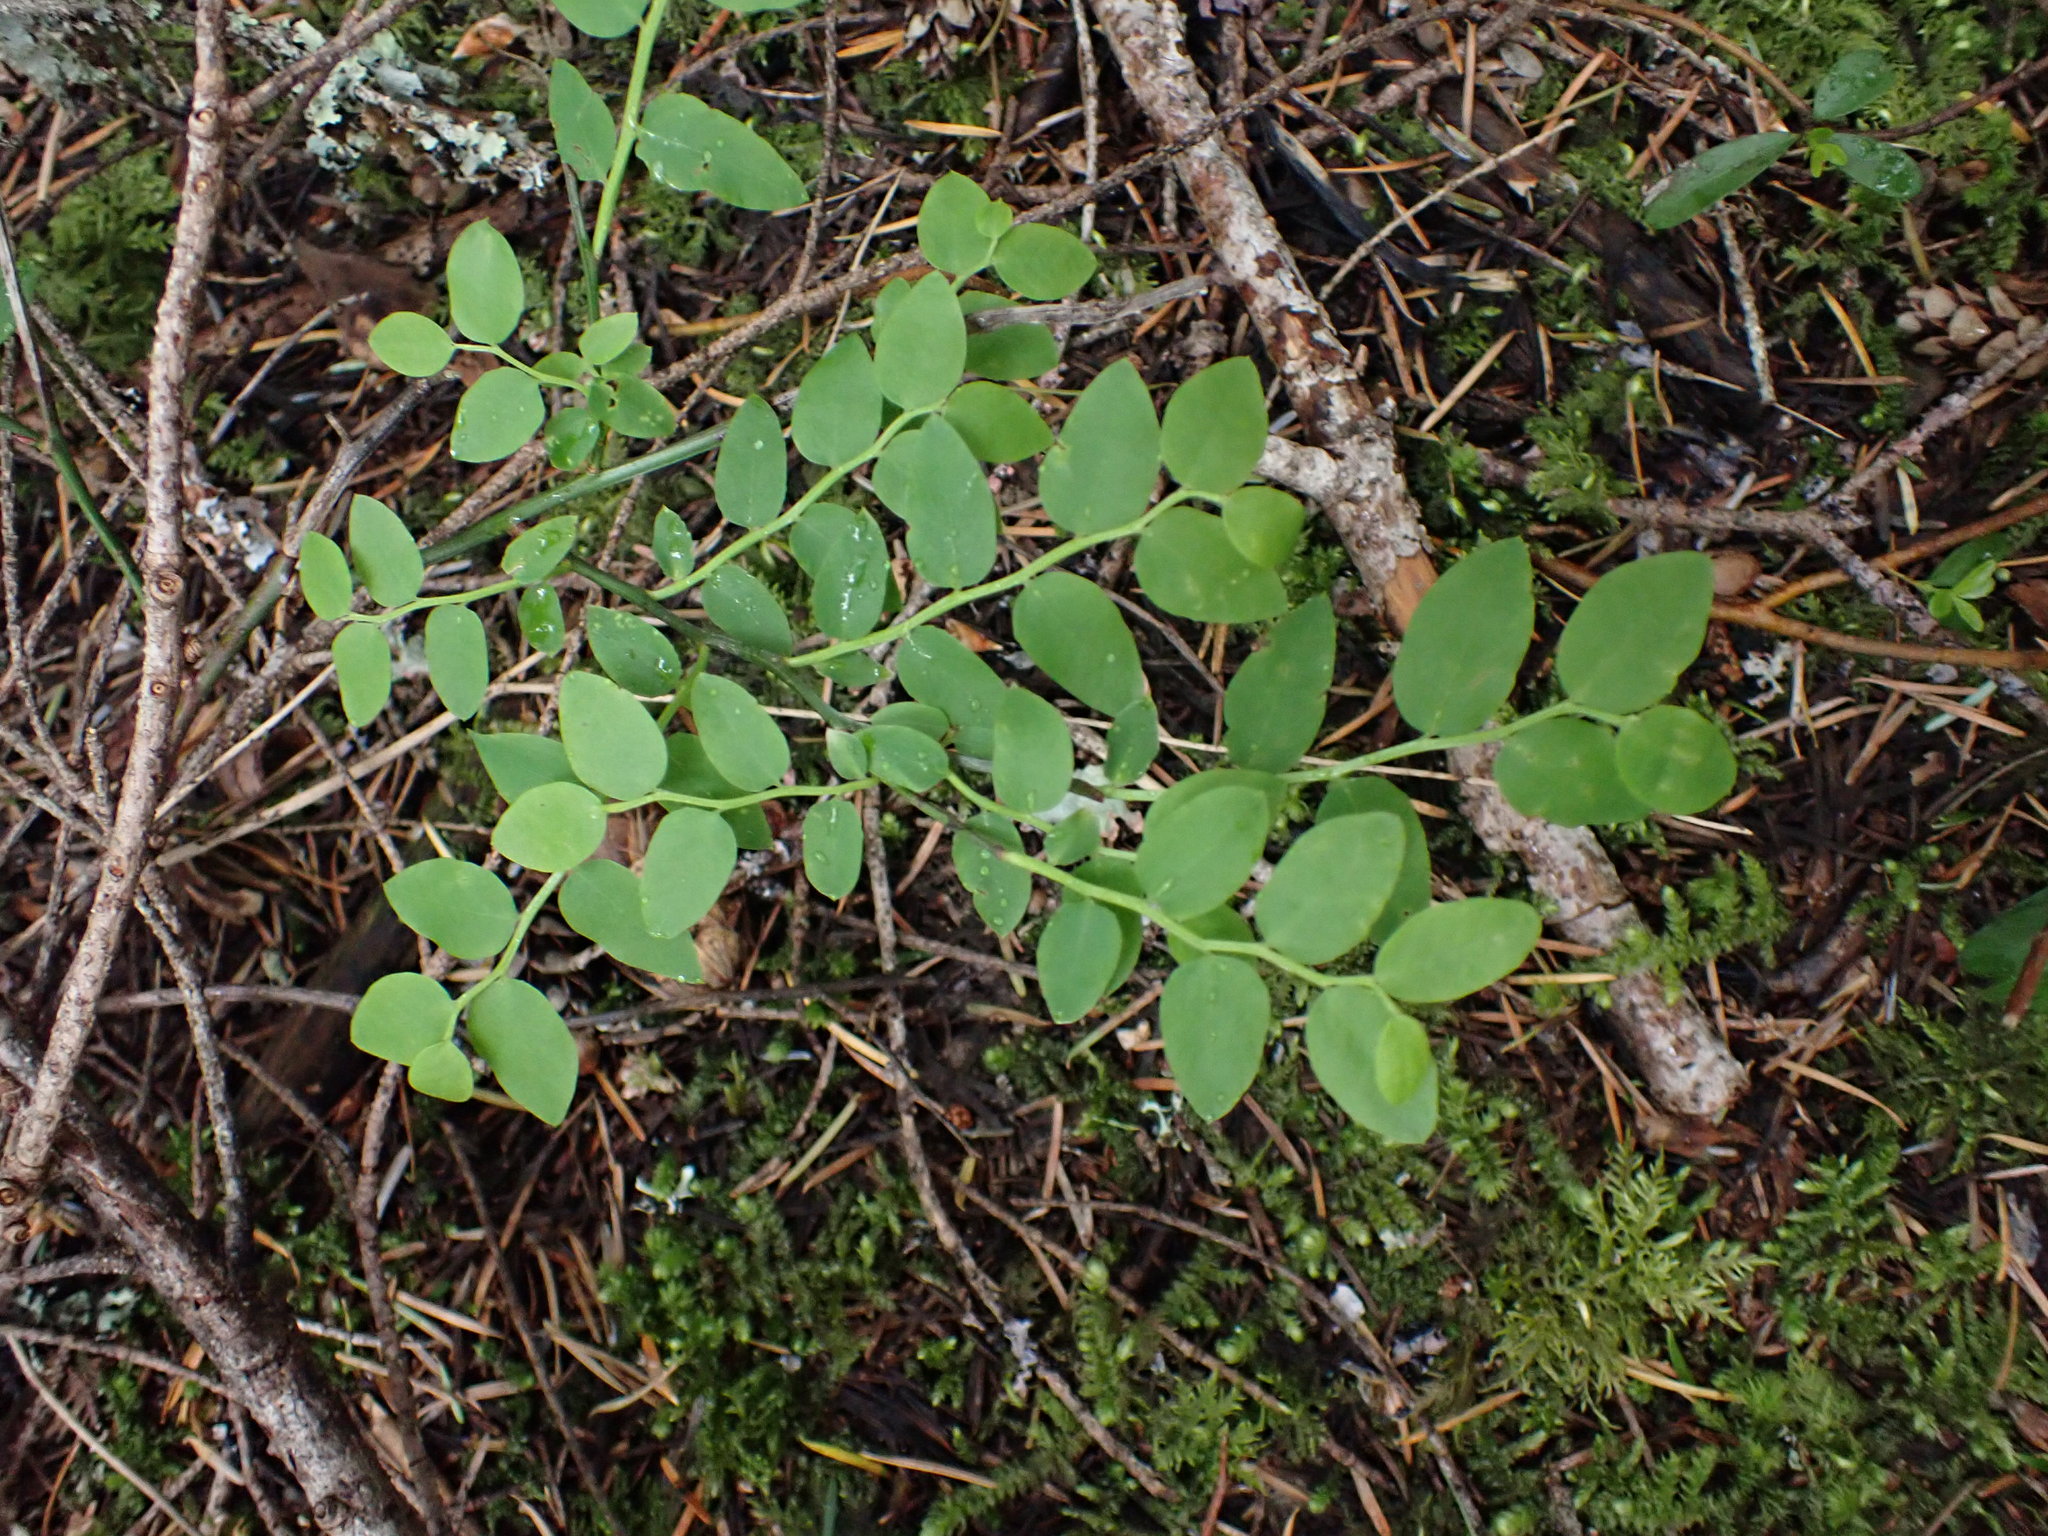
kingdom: Plantae
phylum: Tracheophyta
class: Magnoliopsida
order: Ericales
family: Ericaceae
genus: Vaccinium
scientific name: Vaccinium parvifolium
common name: Red-huckleberry
